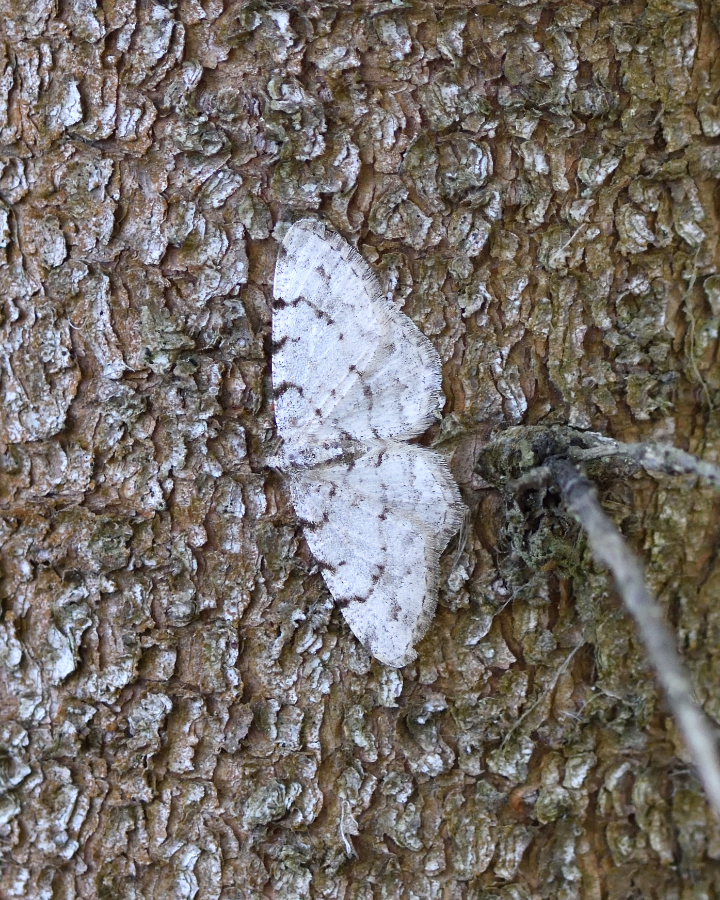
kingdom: Animalia
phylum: Arthropoda
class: Insecta
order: Lepidoptera
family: Geometridae
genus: Aethalura
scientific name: Aethalura punctulata
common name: Grey birch
